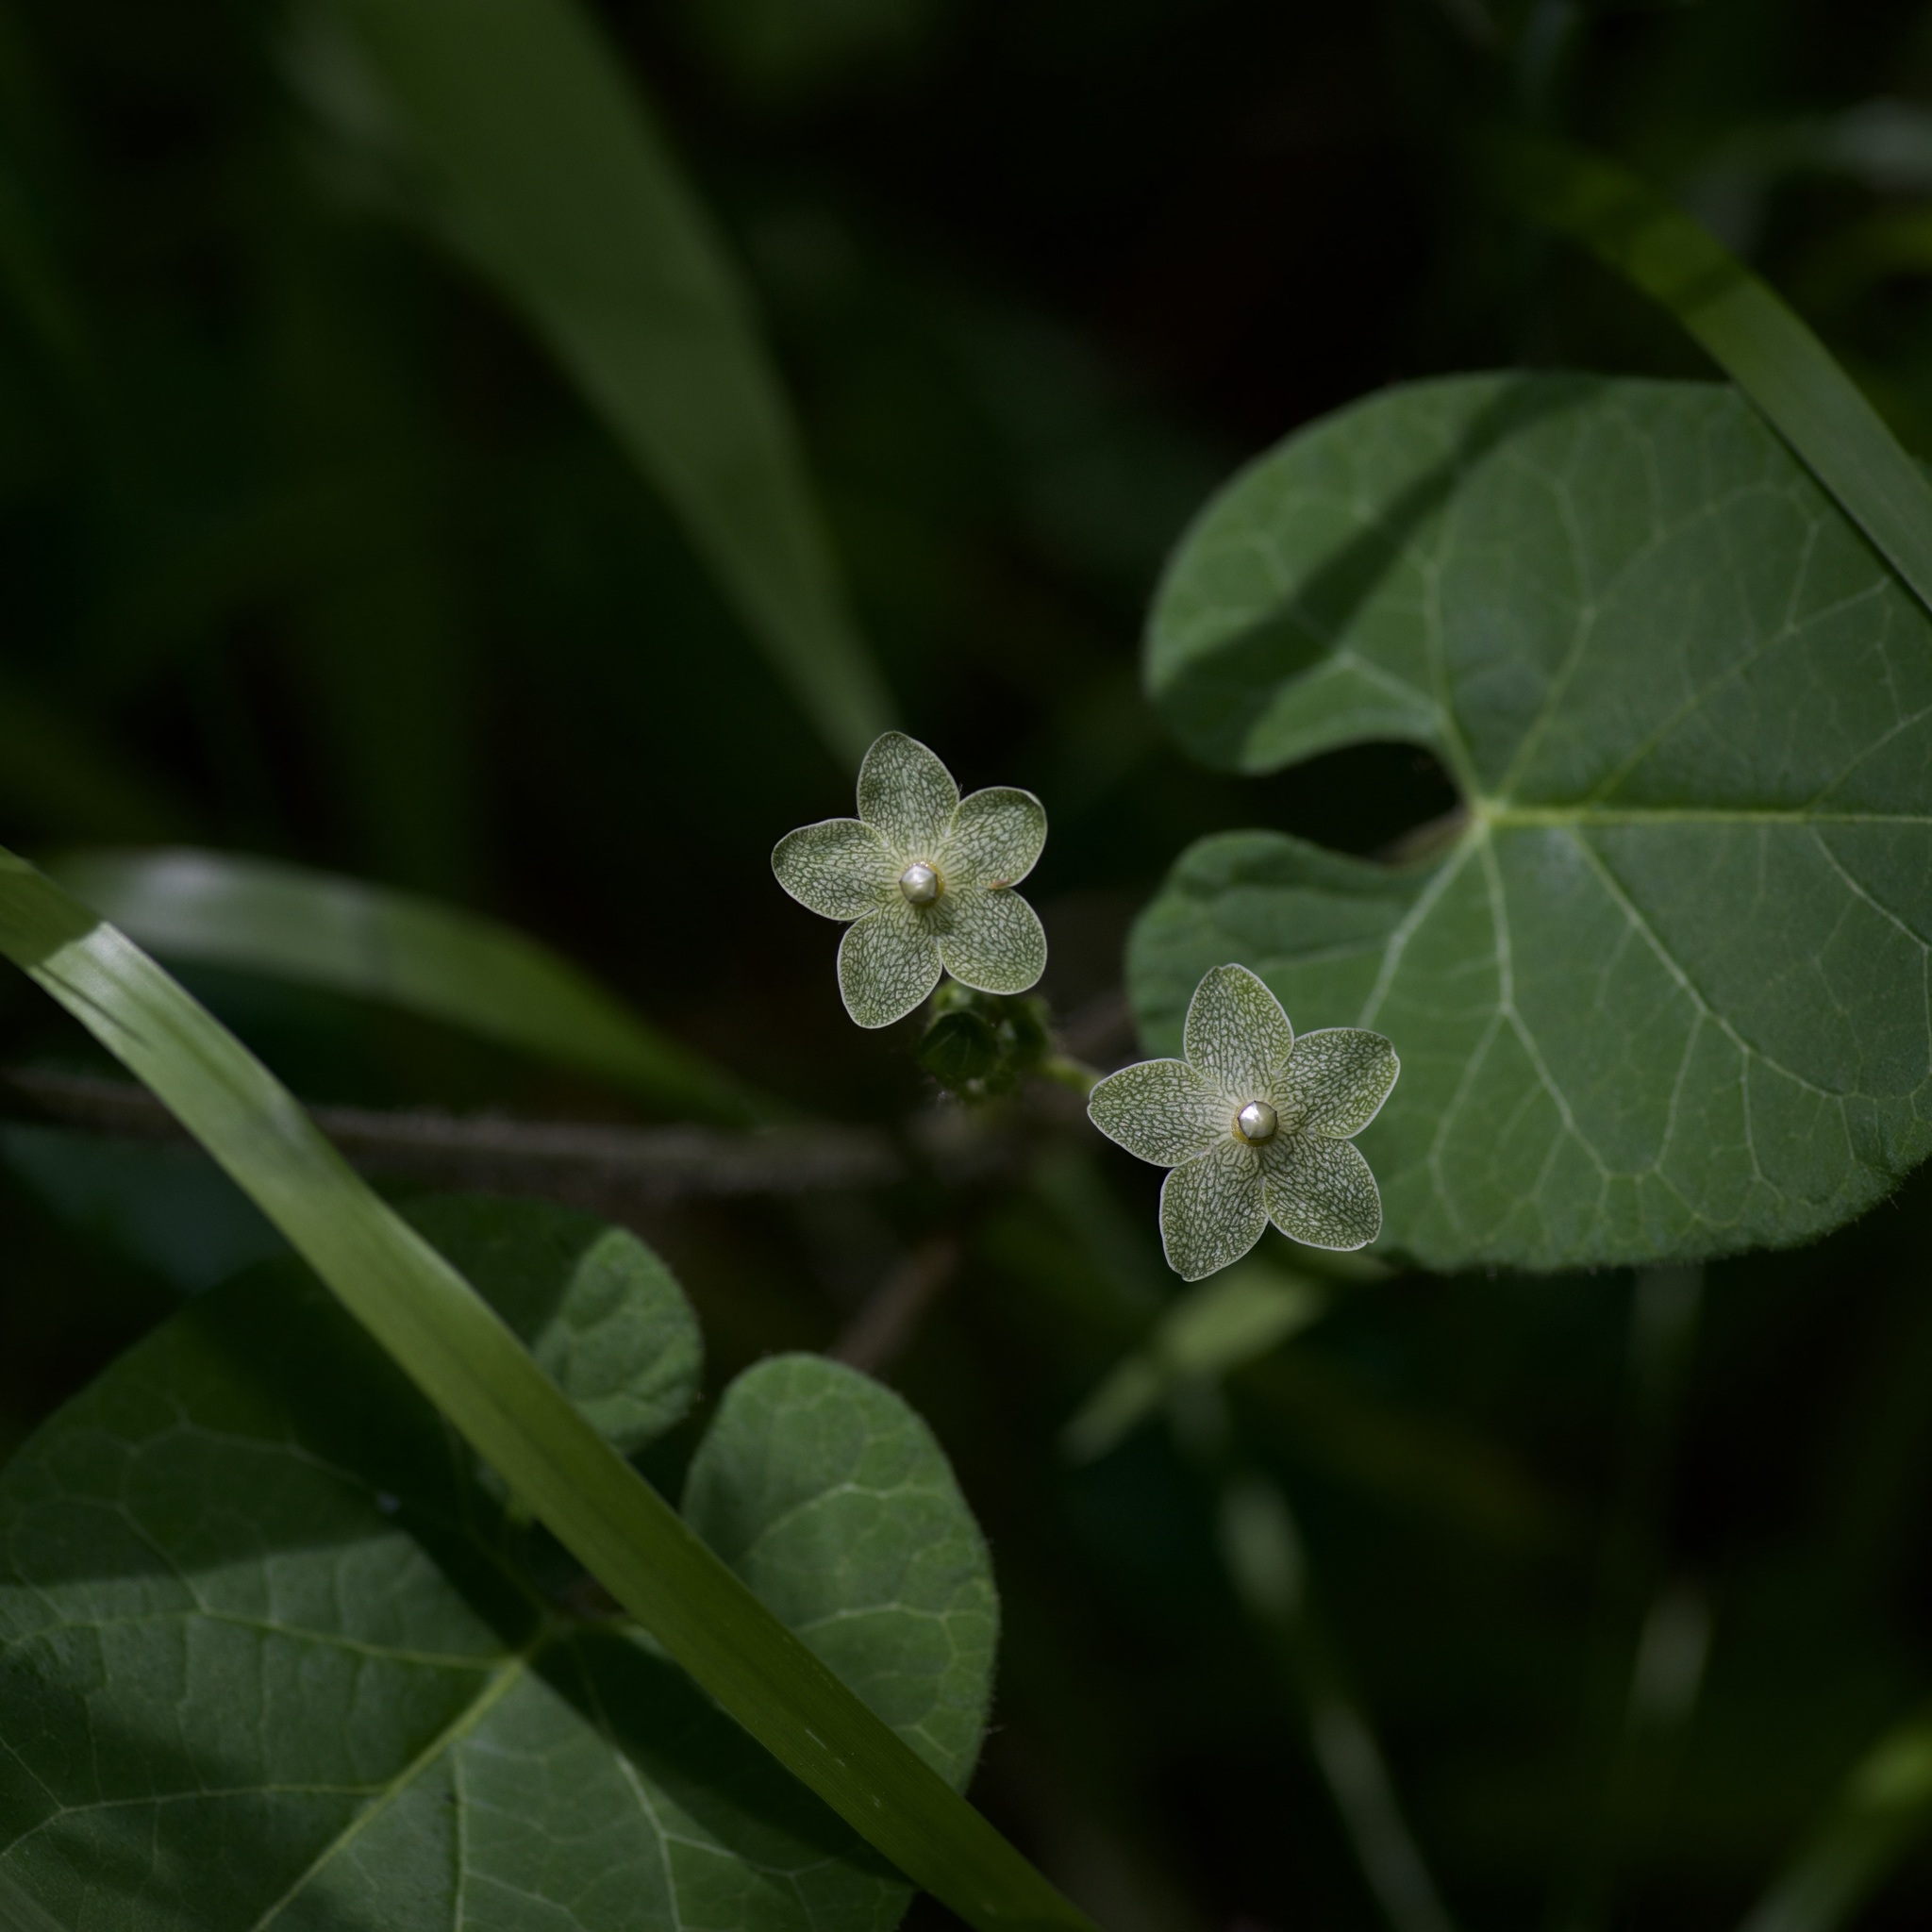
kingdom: Plantae
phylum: Tracheophyta
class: Magnoliopsida
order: Gentianales
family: Apocynaceae
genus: Dictyanthus
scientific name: Dictyanthus reticulatus
